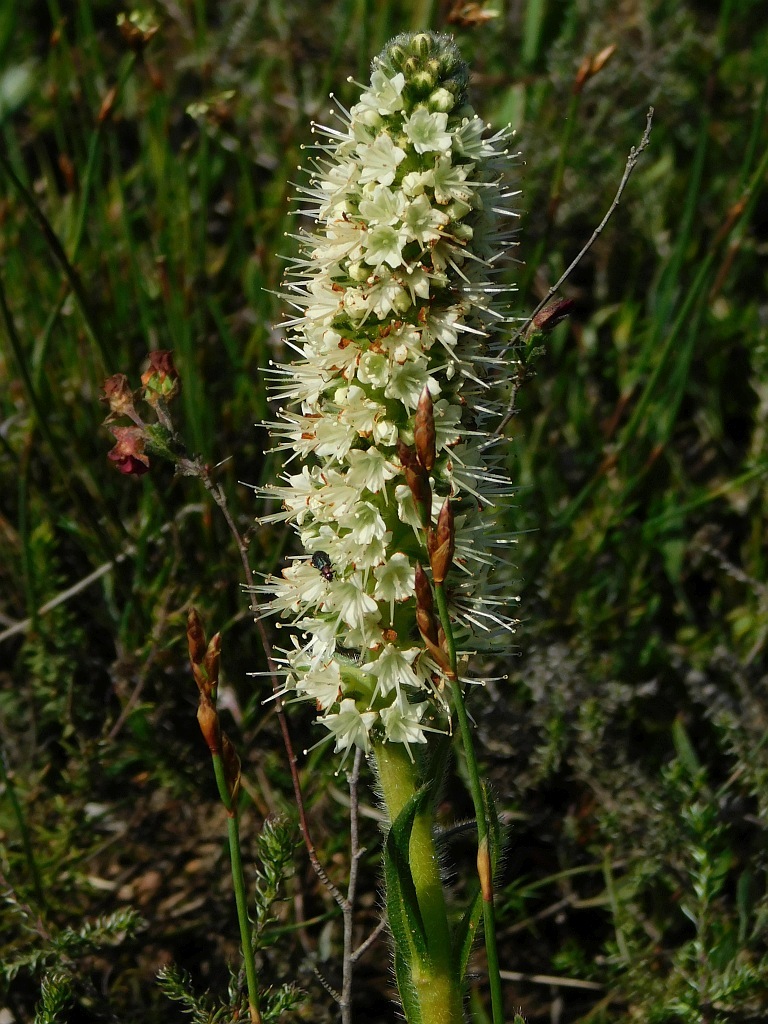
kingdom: Plantae
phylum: Tracheophyta
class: Magnoliopsida
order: Boraginales
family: Boraginaceae
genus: Lobostemon
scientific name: Lobostemon splendens
